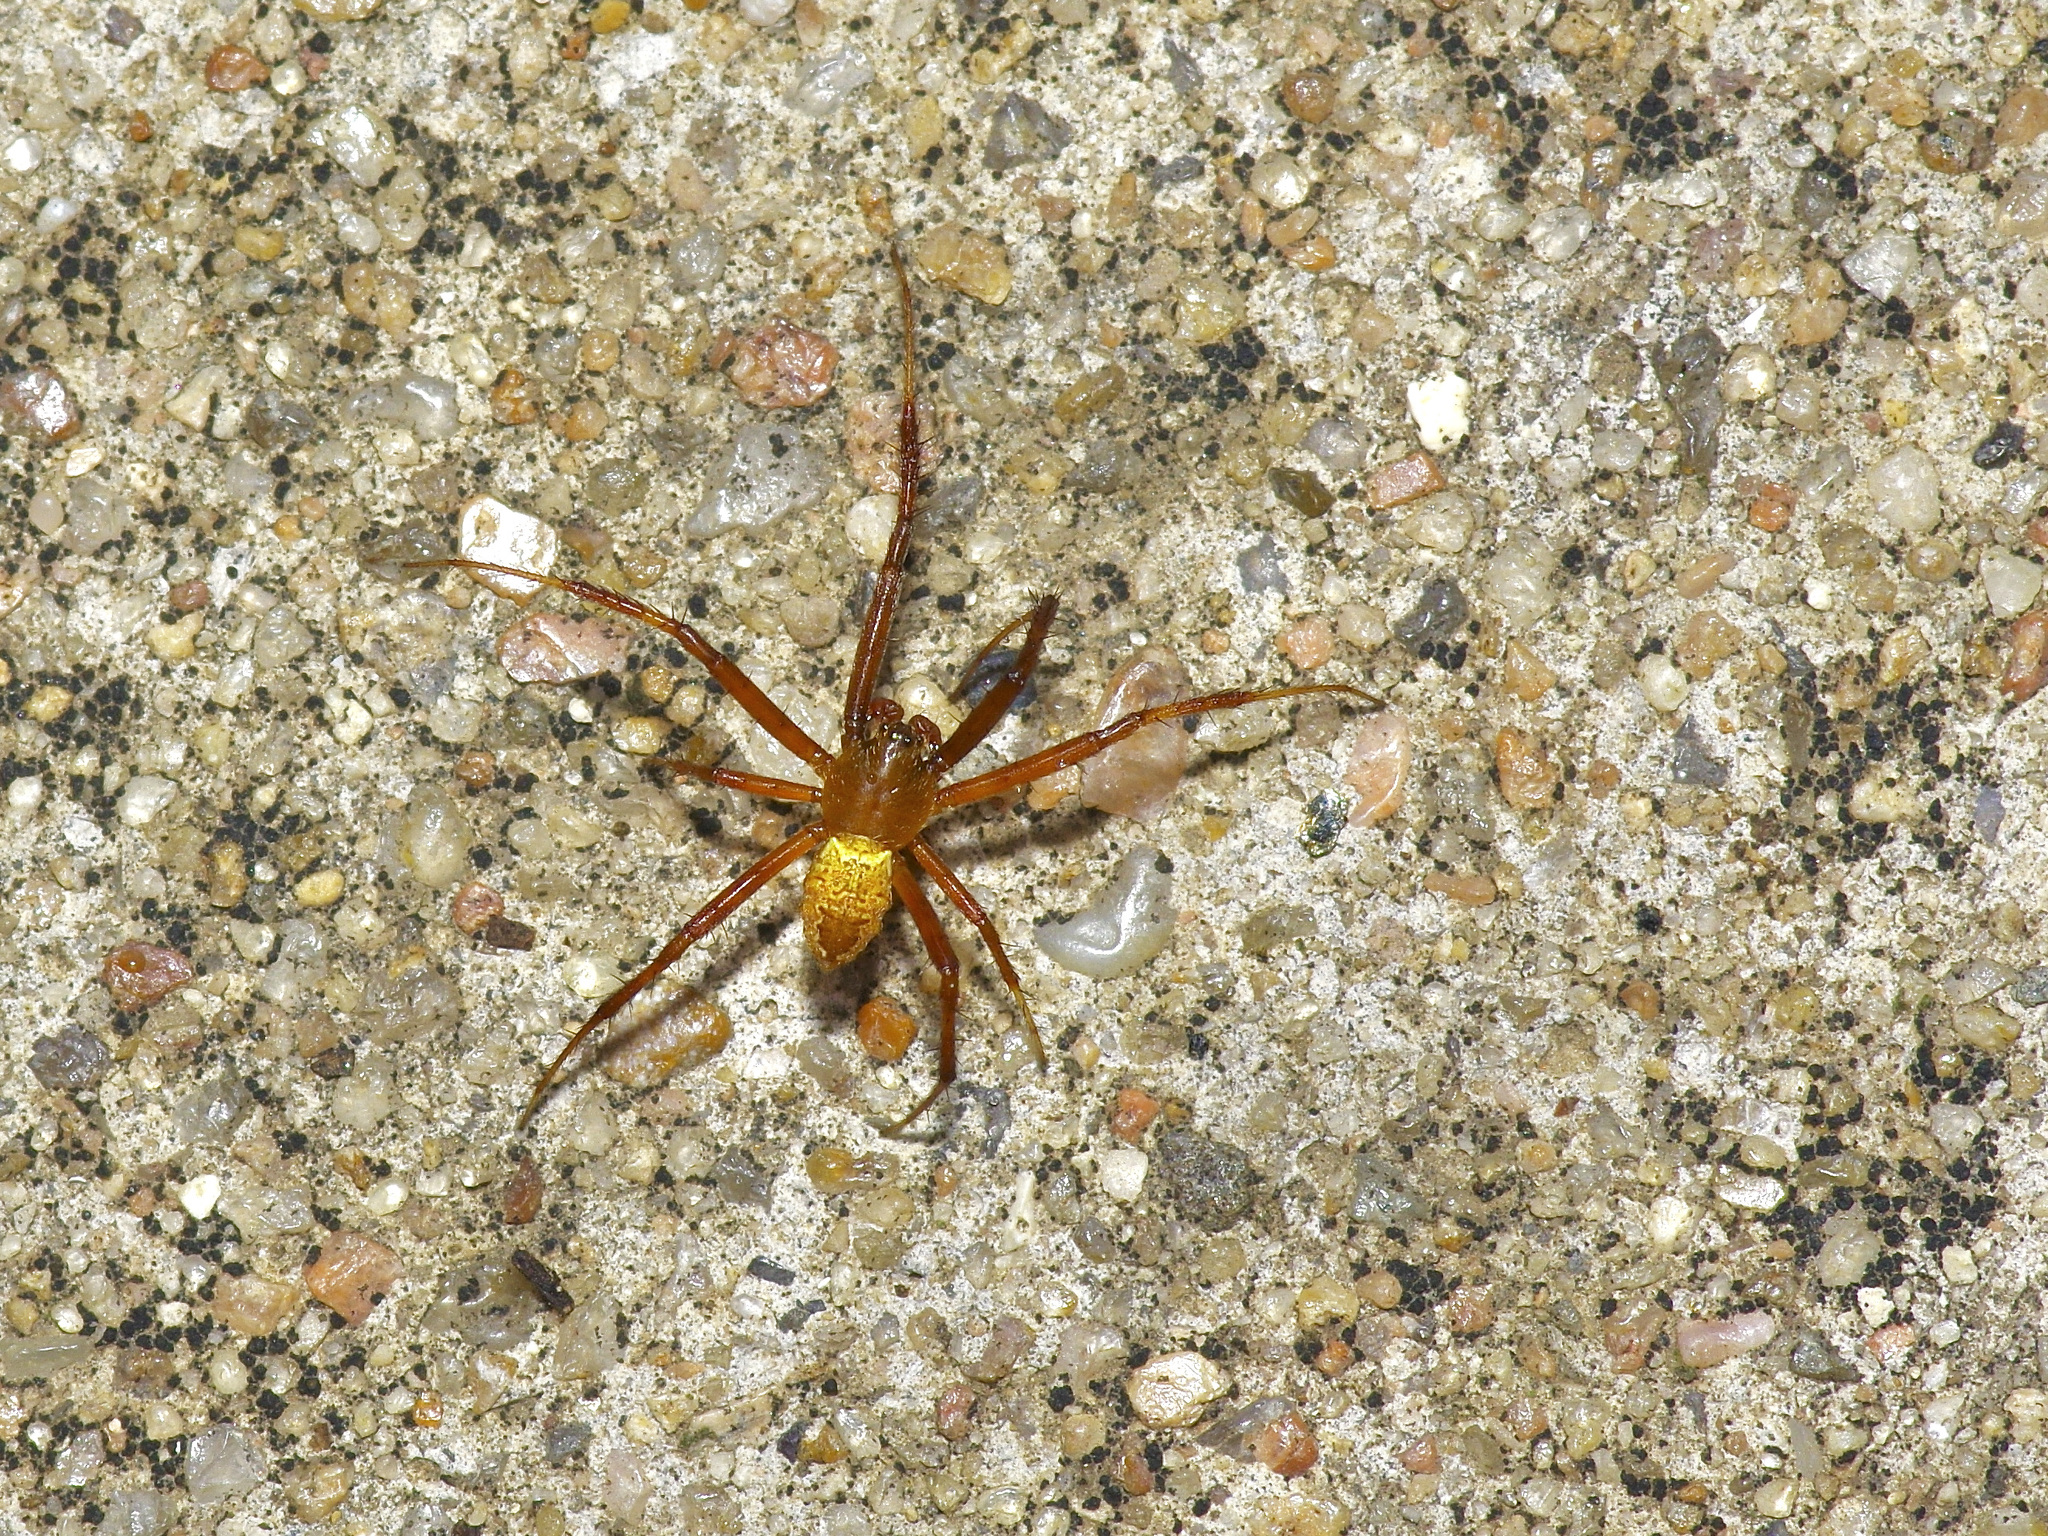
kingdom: Animalia
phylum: Arthropoda
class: Arachnida
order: Araneae
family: Araneidae
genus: Gea
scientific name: Gea heptagon
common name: Orb weavers
